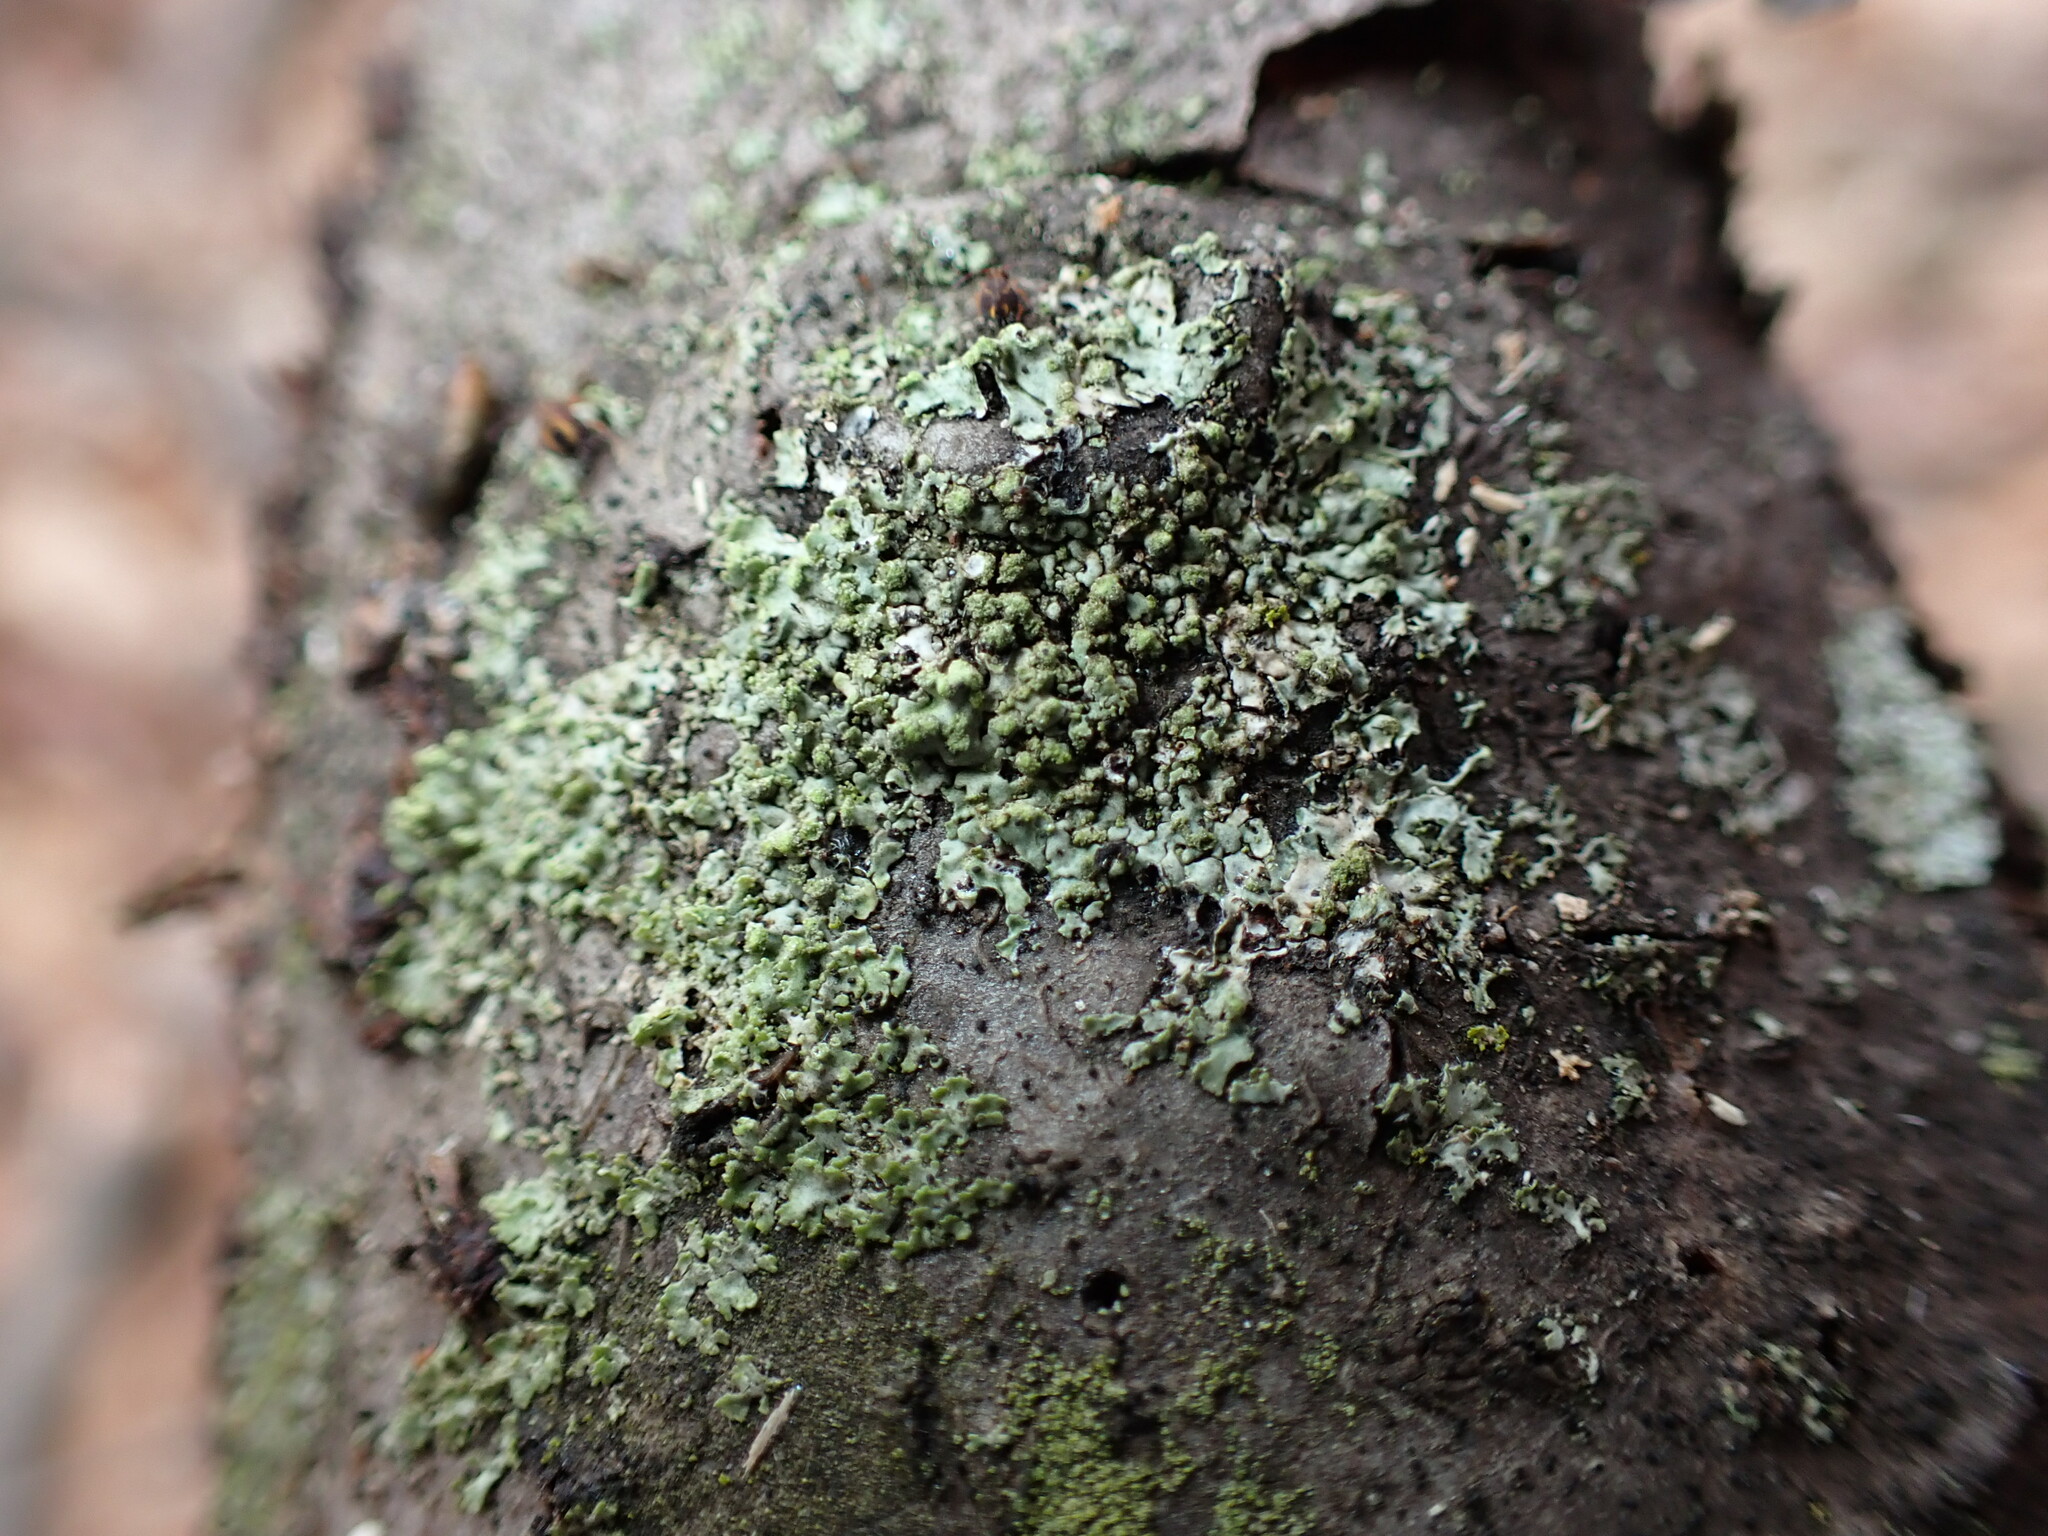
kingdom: Fungi
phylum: Ascomycota
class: Lecanoromycetes
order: Caliciales
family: Physciaceae
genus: Phaeophyscia
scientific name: Phaeophyscia pusilloides
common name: Pom-pom shadow lichen
